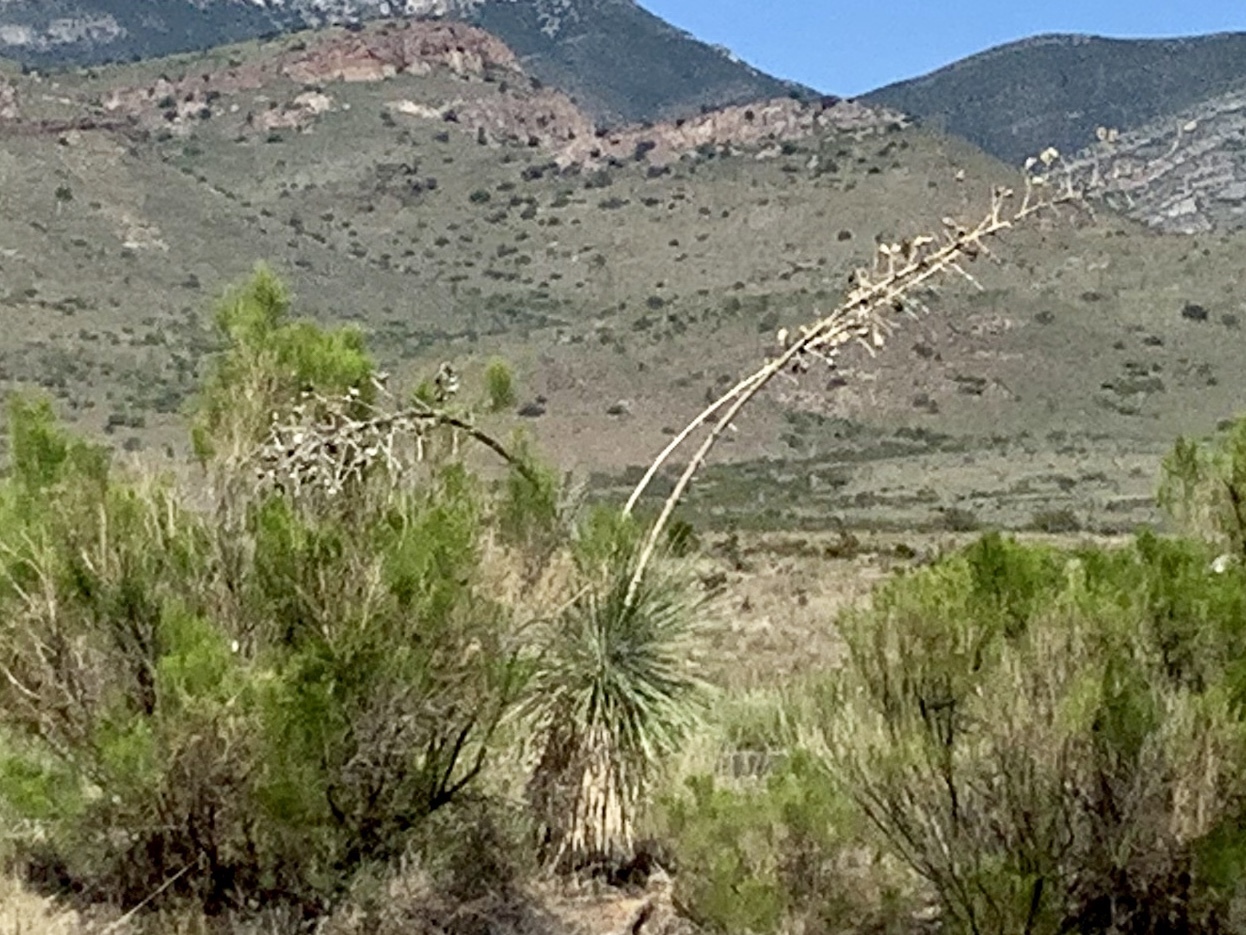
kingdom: Plantae
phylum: Tracheophyta
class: Liliopsida
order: Asparagales
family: Asparagaceae
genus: Yucca
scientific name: Yucca elata
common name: Palmella
